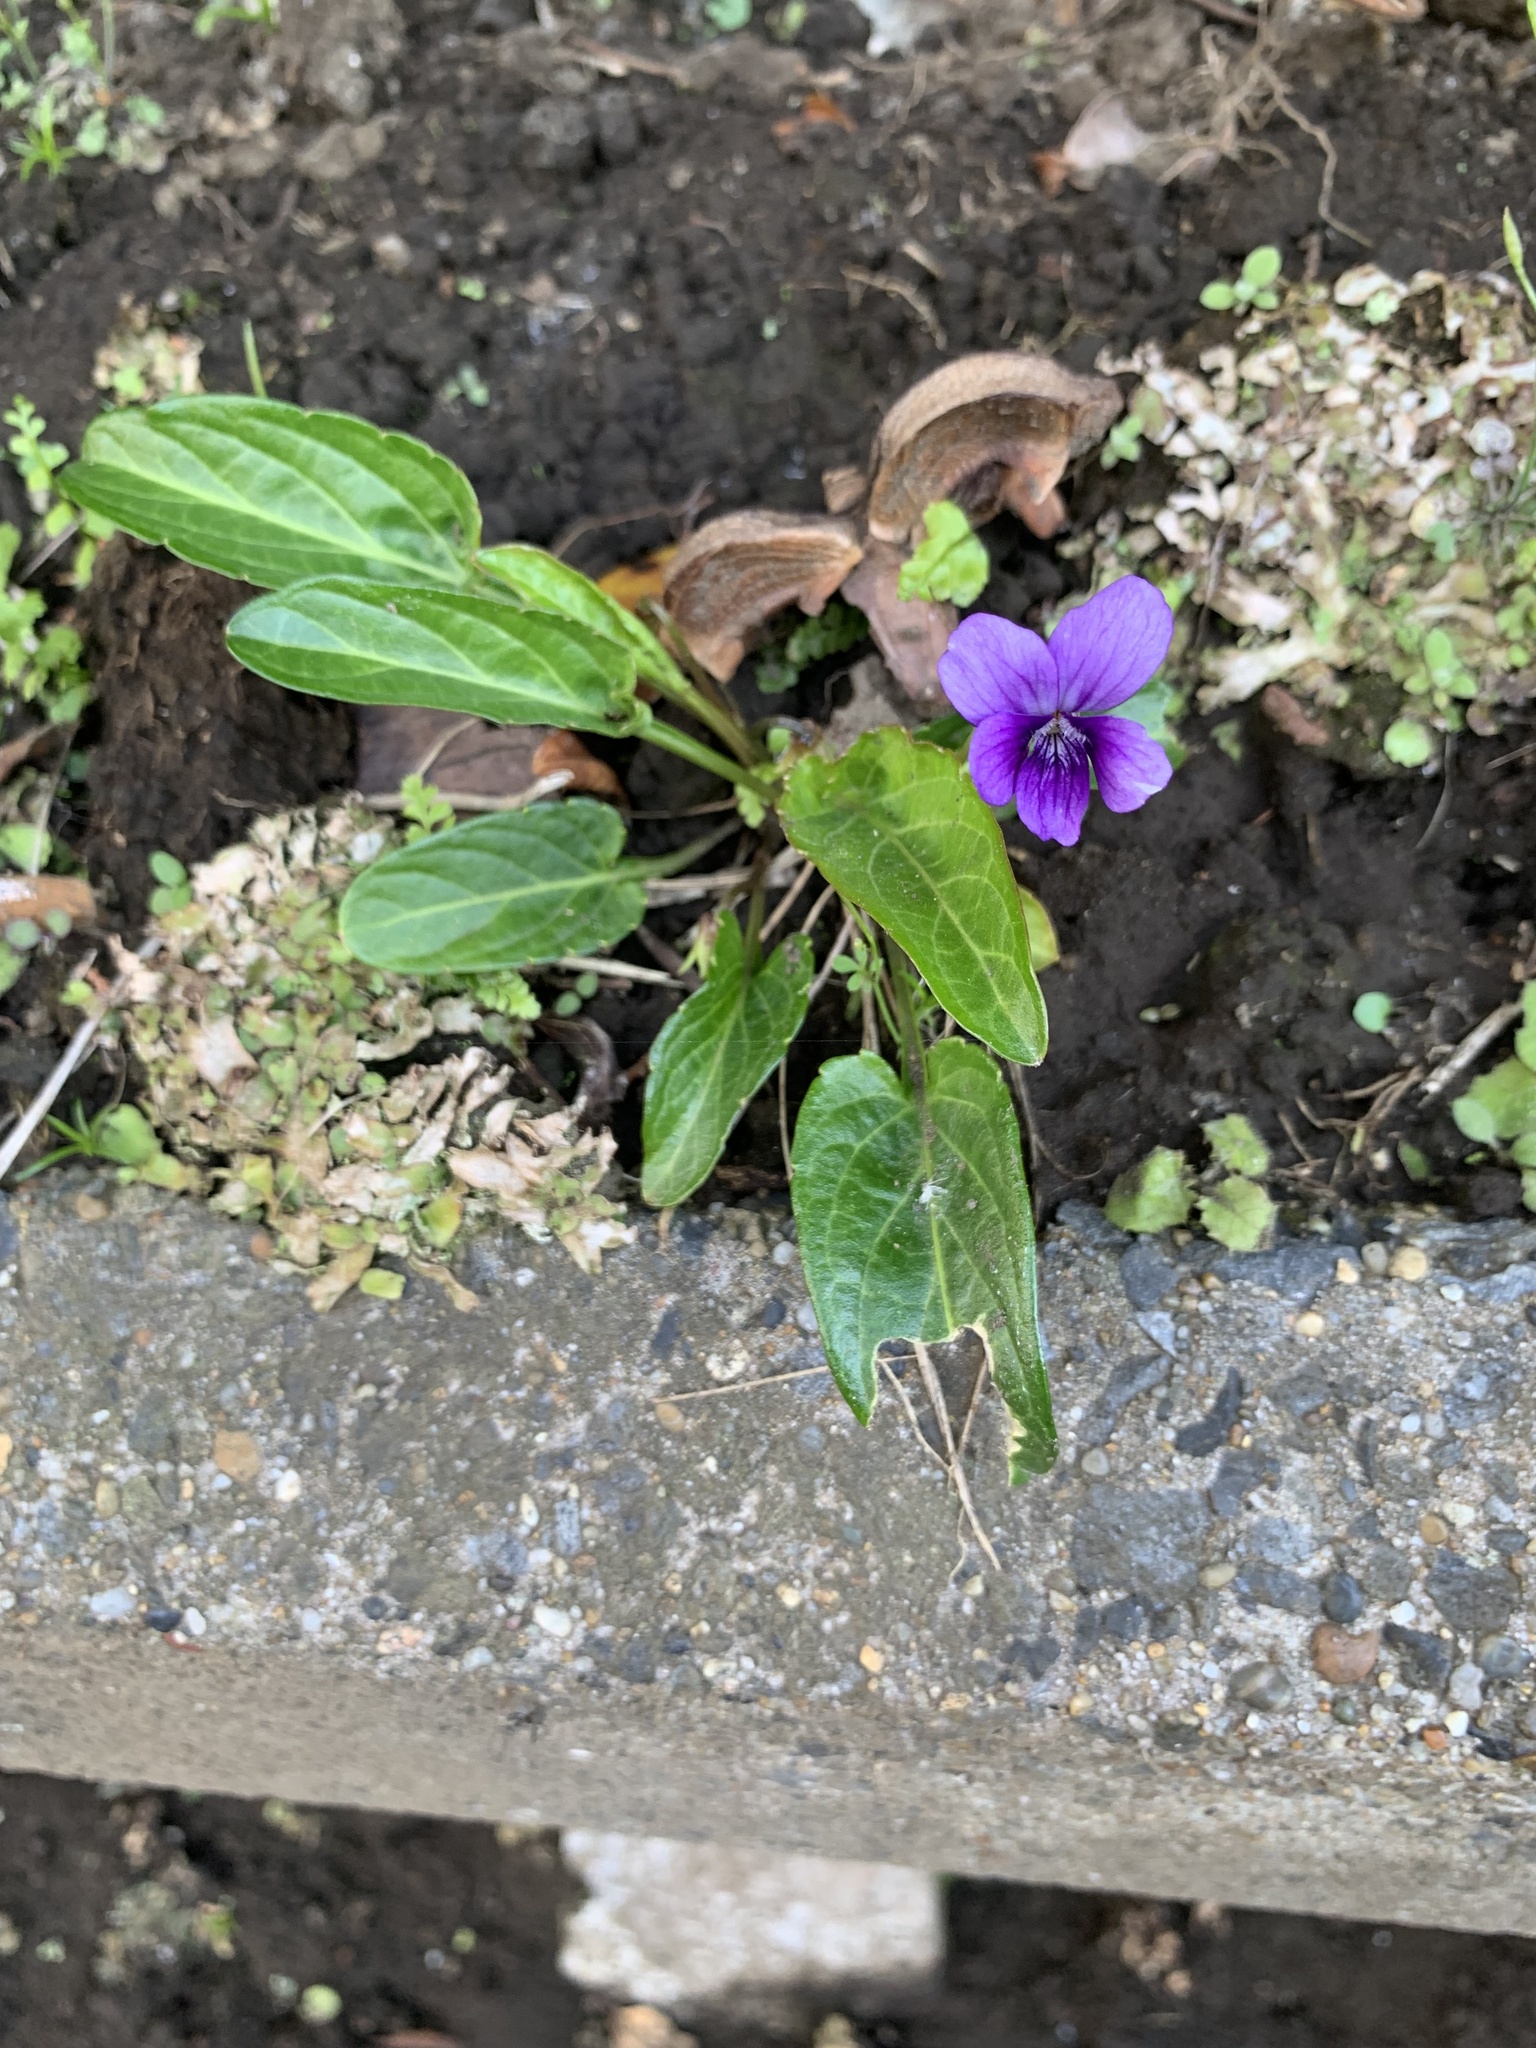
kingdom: Plantae
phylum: Tracheophyta
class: Magnoliopsida
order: Malpighiales
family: Violaceae
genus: Viola
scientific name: Viola mandshurica
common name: Manchuria violet
